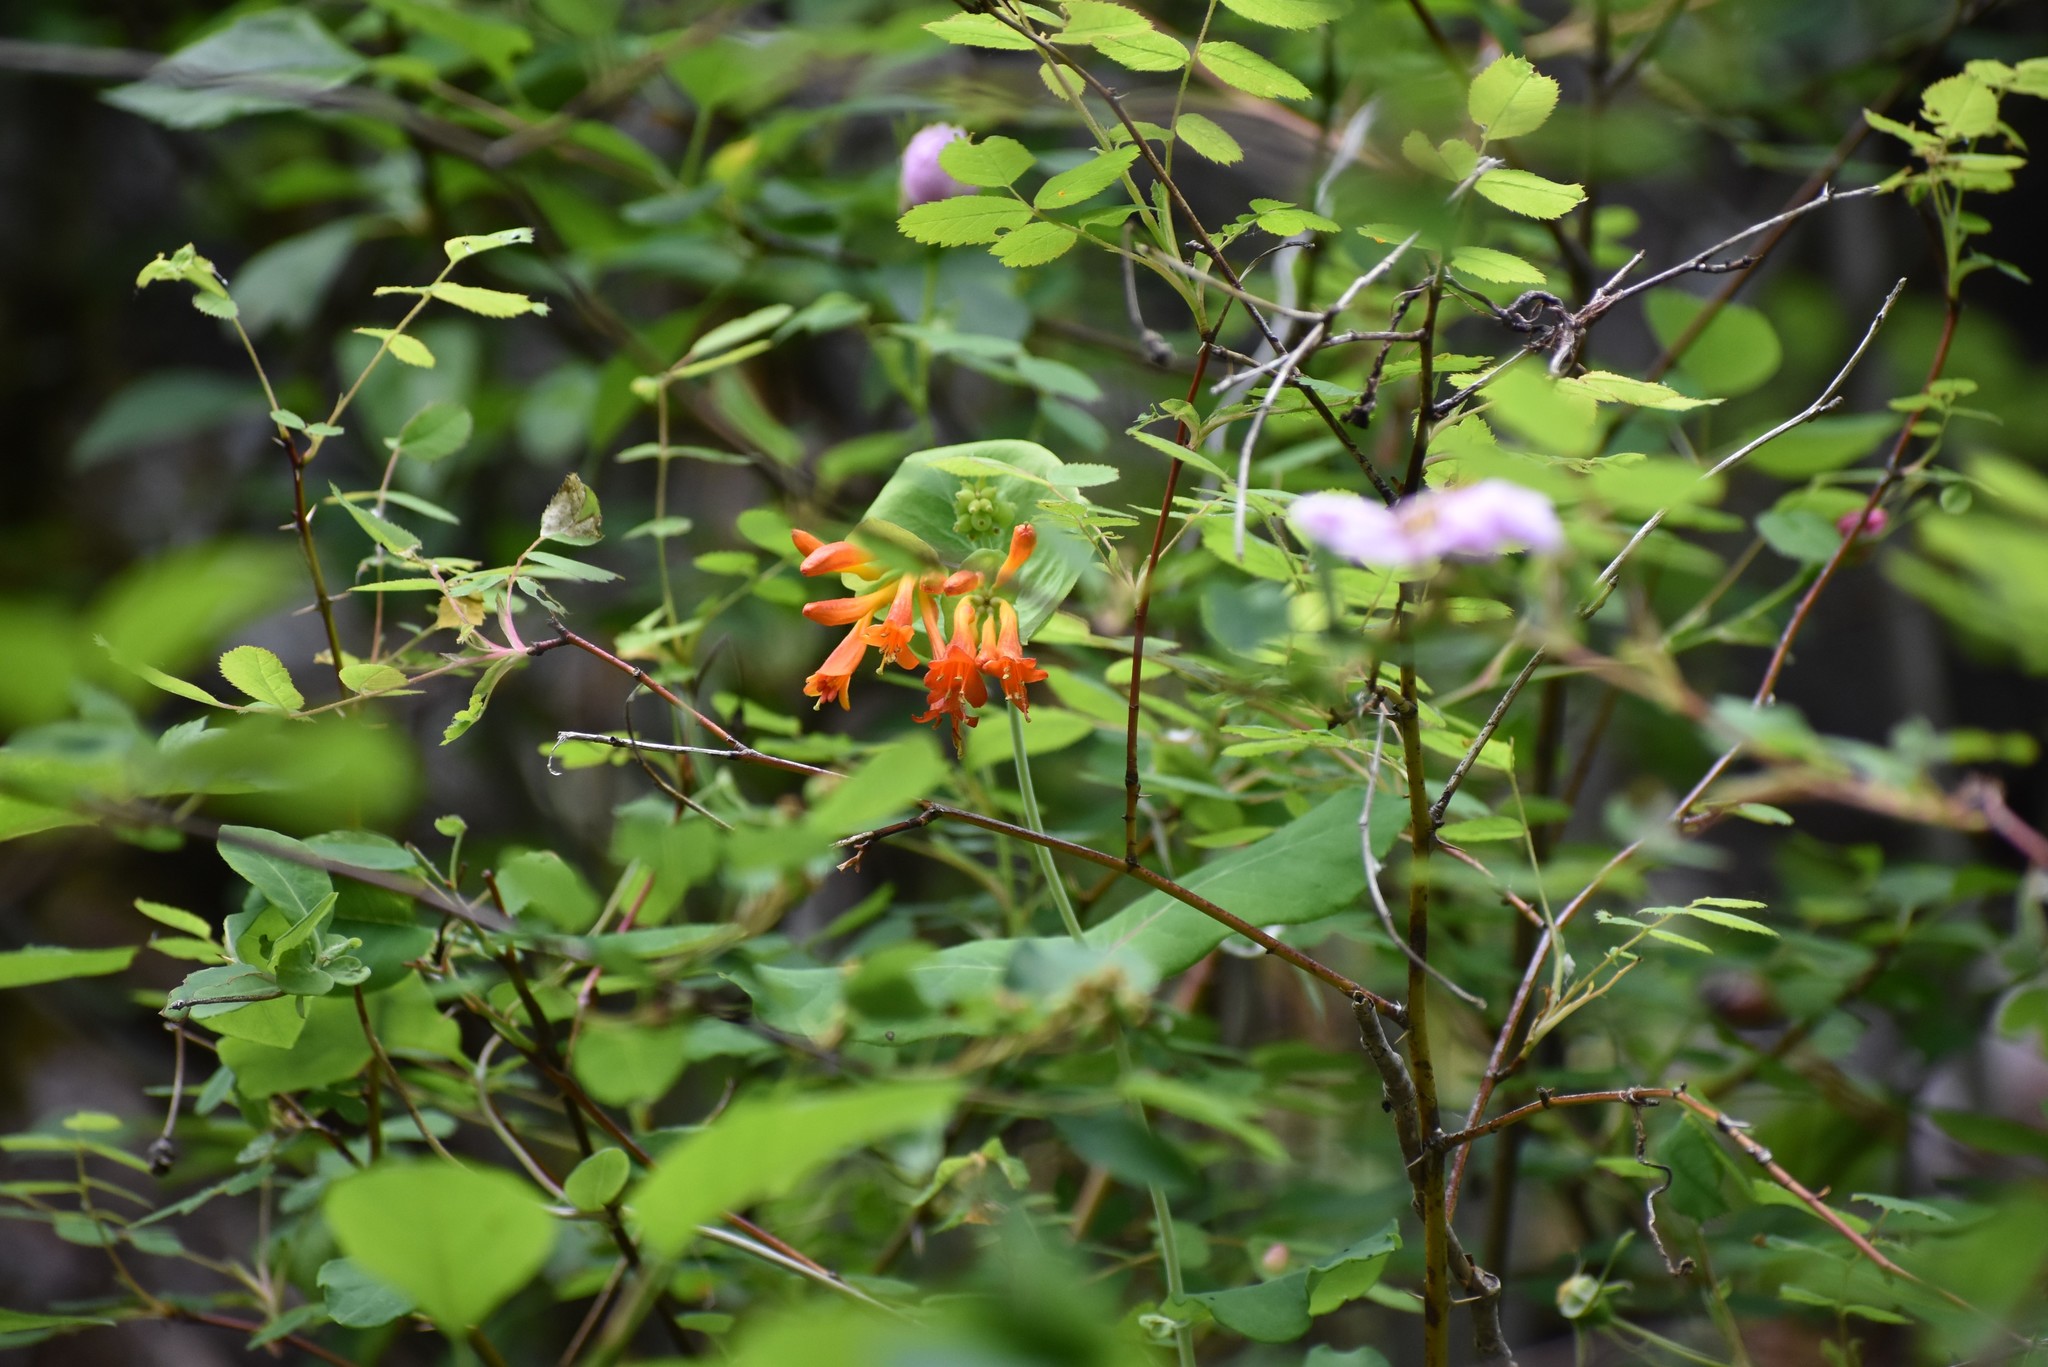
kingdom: Plantae
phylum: Tracheophyta
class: Magnoliopsida
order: Dipsacales
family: Caprifoliaceae
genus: Lonicera
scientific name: Lonicera ciliosa
